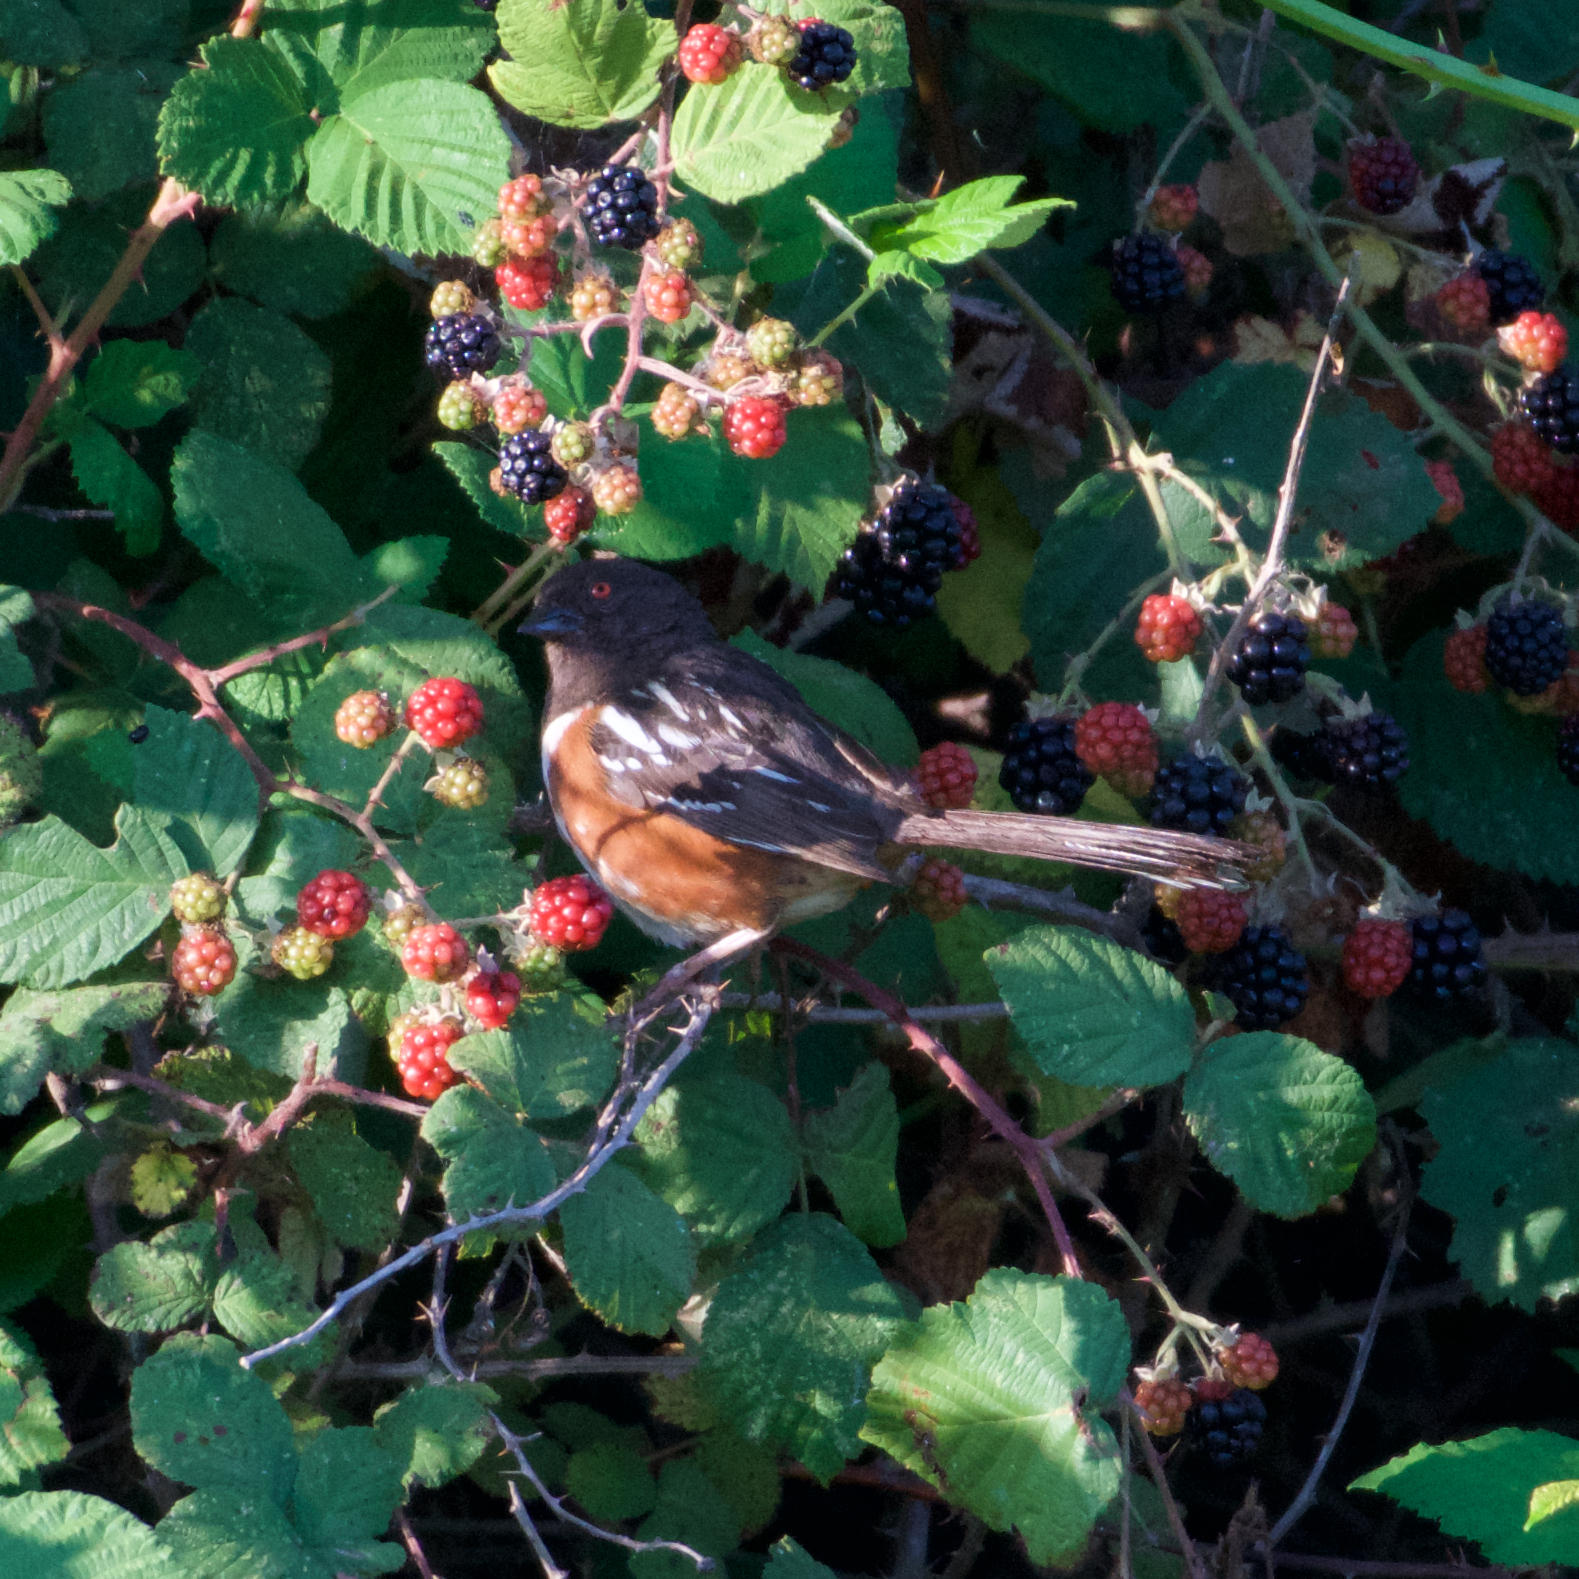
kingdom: Animalia
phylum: Chordata
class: Aves
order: Passeriformes
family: Passerellidae
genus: Pipilo
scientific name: Pipilo maculatus
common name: Spotted towhee
